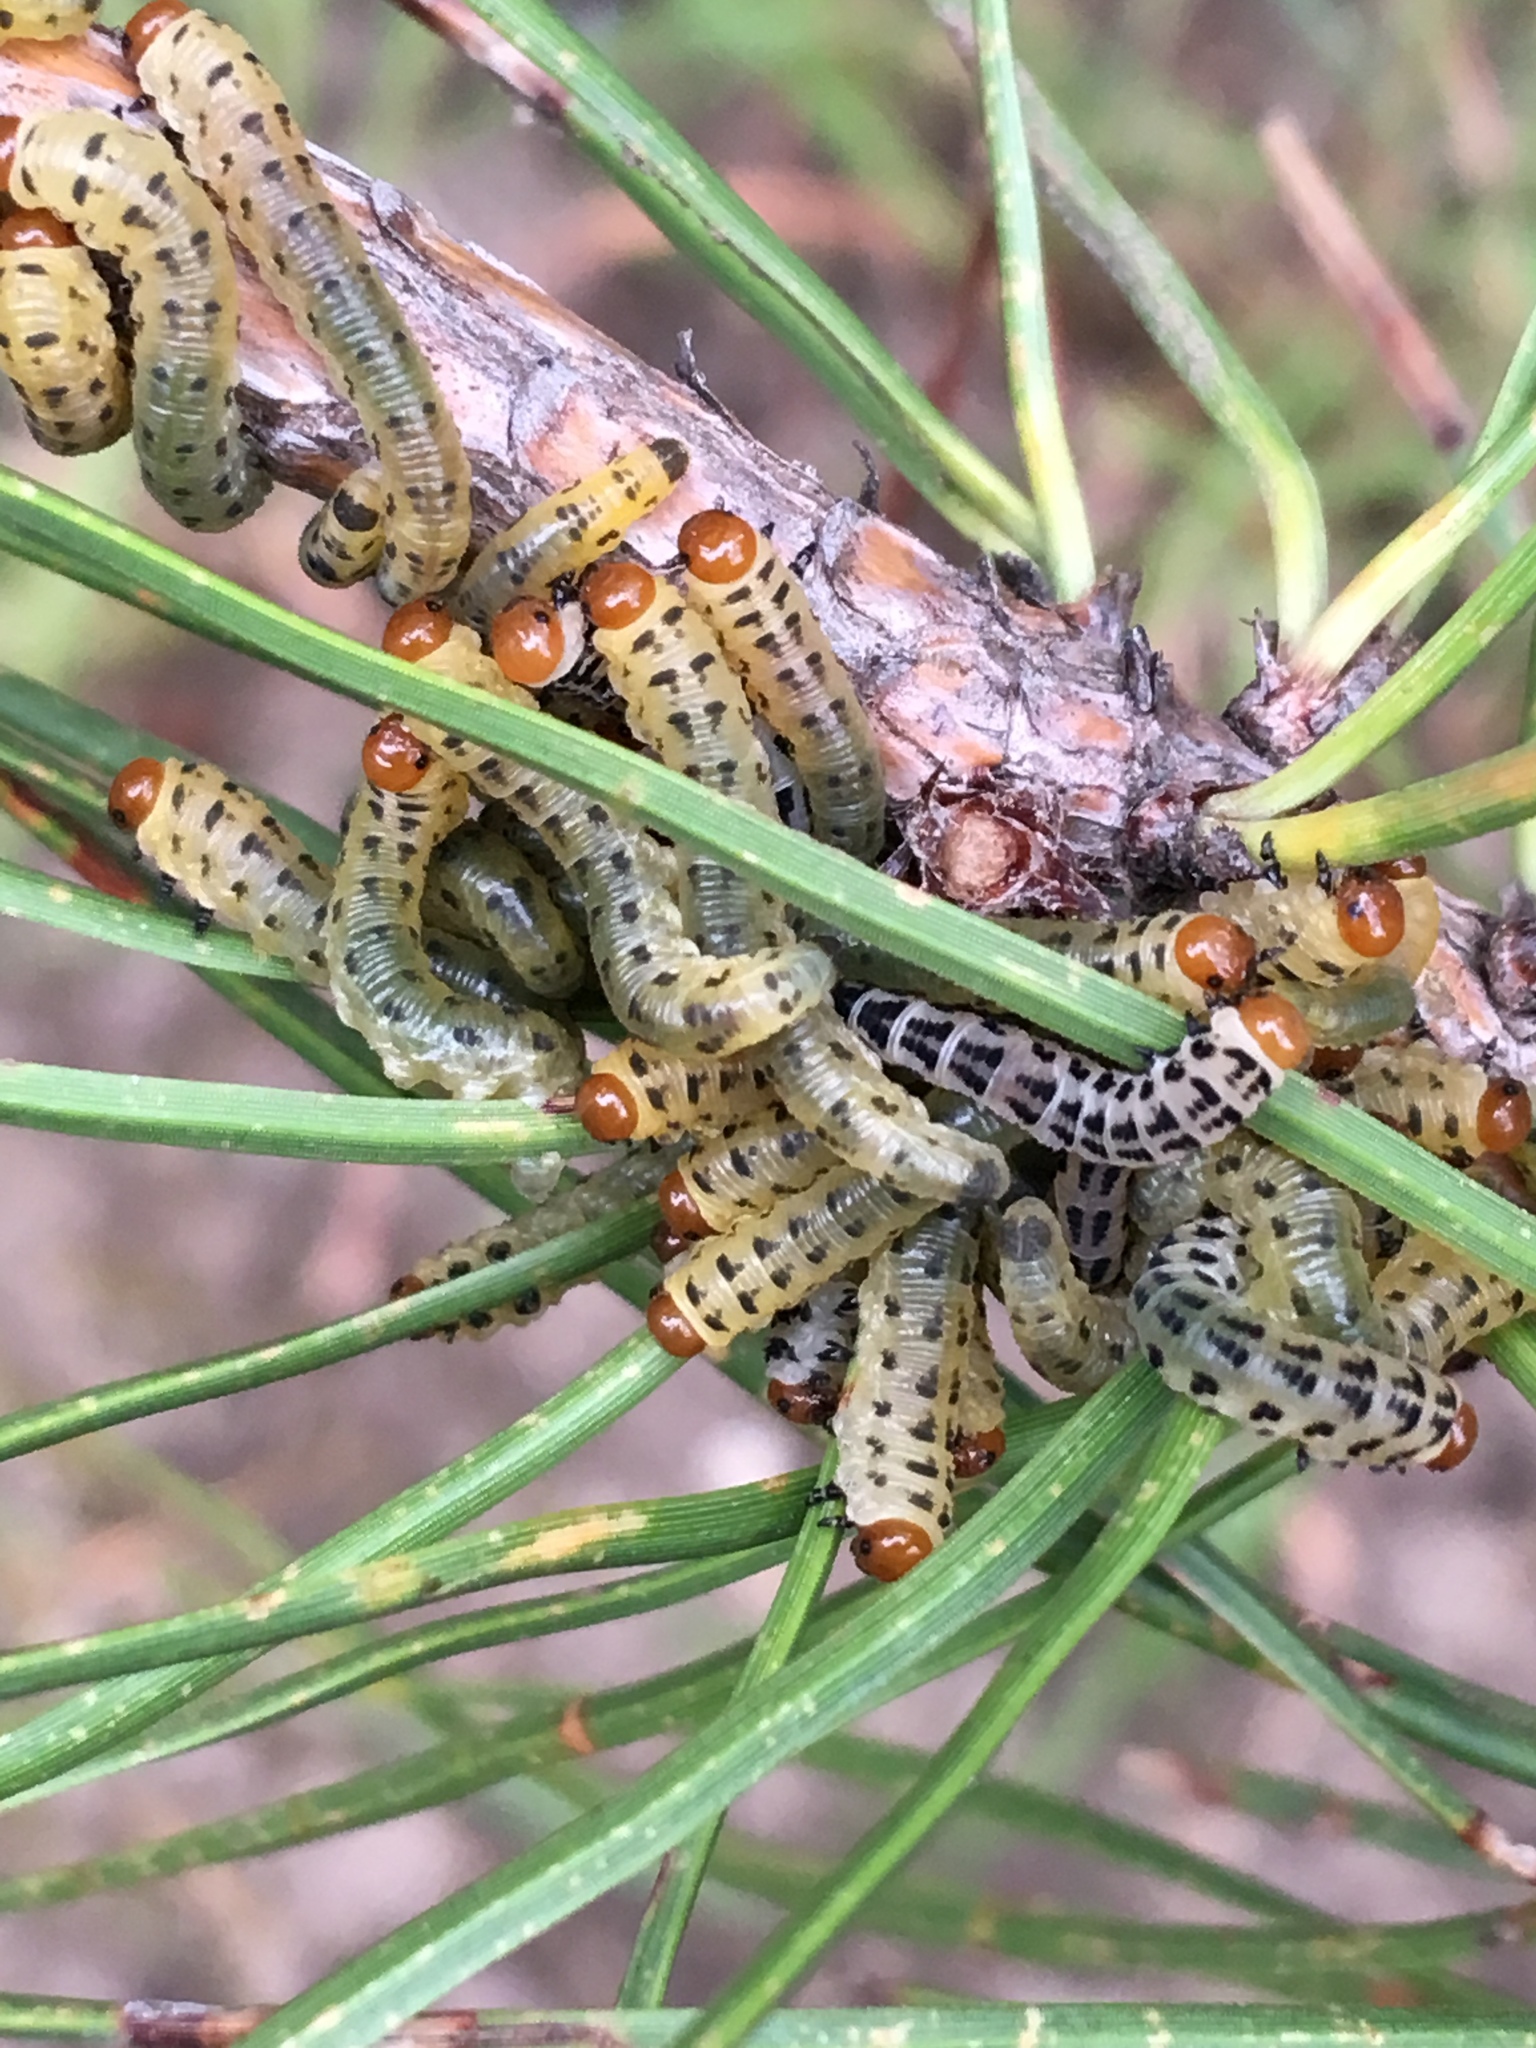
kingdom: Animalia
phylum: Arthropoda
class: Insecta
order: Hymenoptera
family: Diprionidae
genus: Neodiprion
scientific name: Neodiprion lecontei
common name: Redheaded pine sawfly
